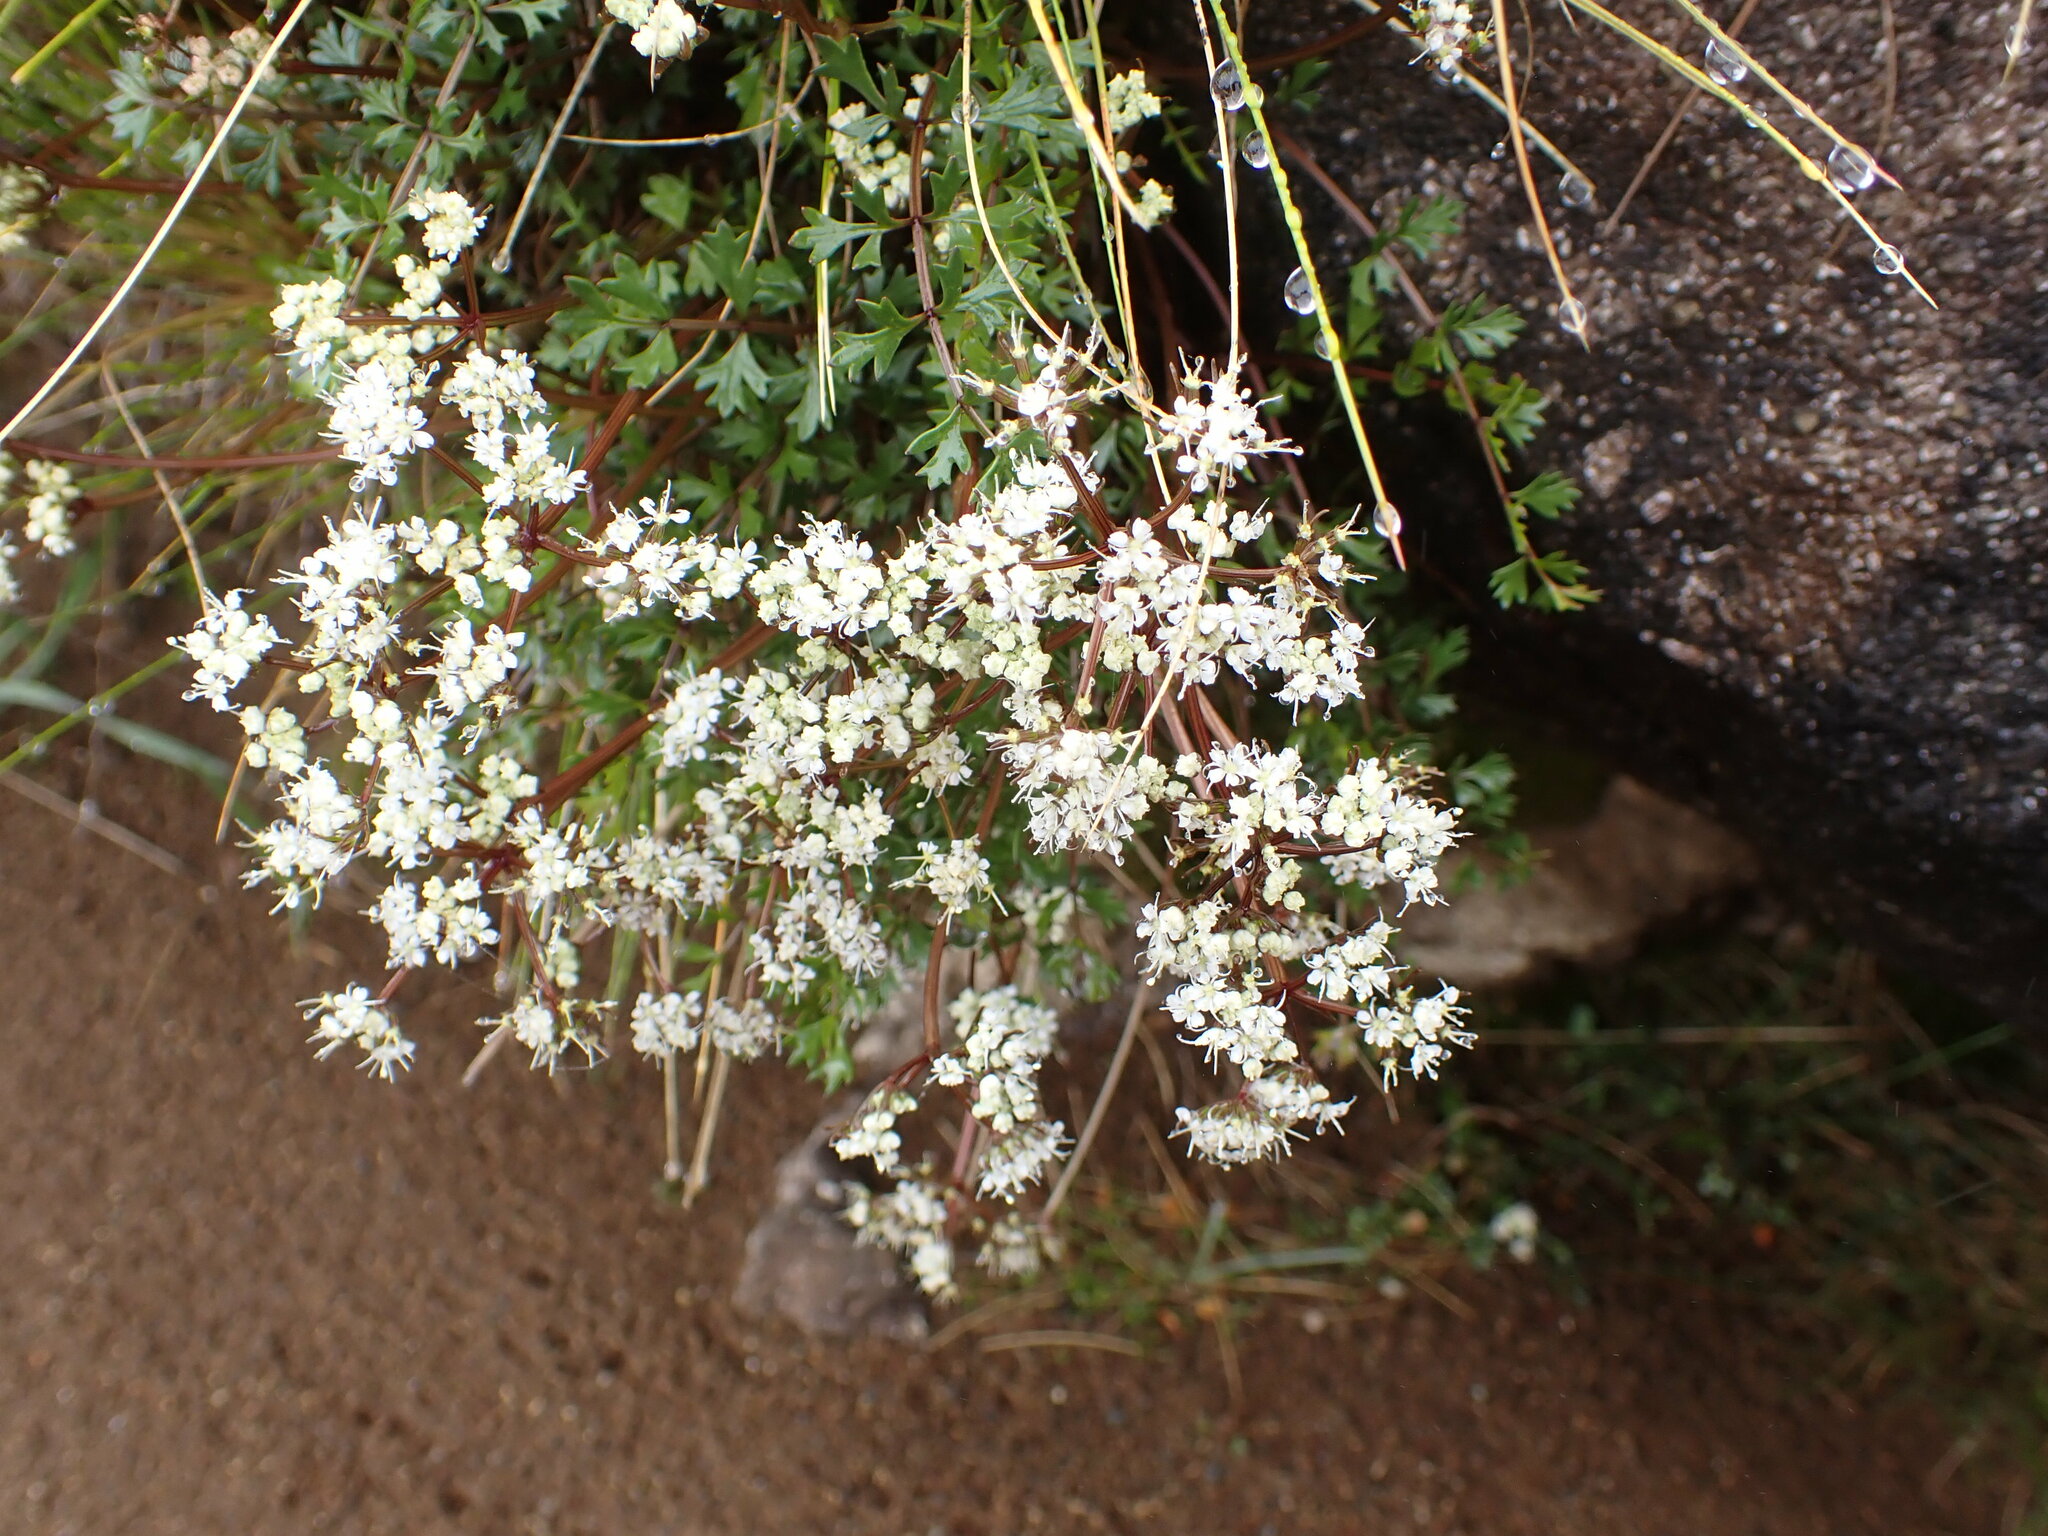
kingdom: Plantae
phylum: Tracheophyta
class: Magnoliopsida
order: Apiales
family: Apiaceae
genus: Gingidia
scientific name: Gingidia decipiens
